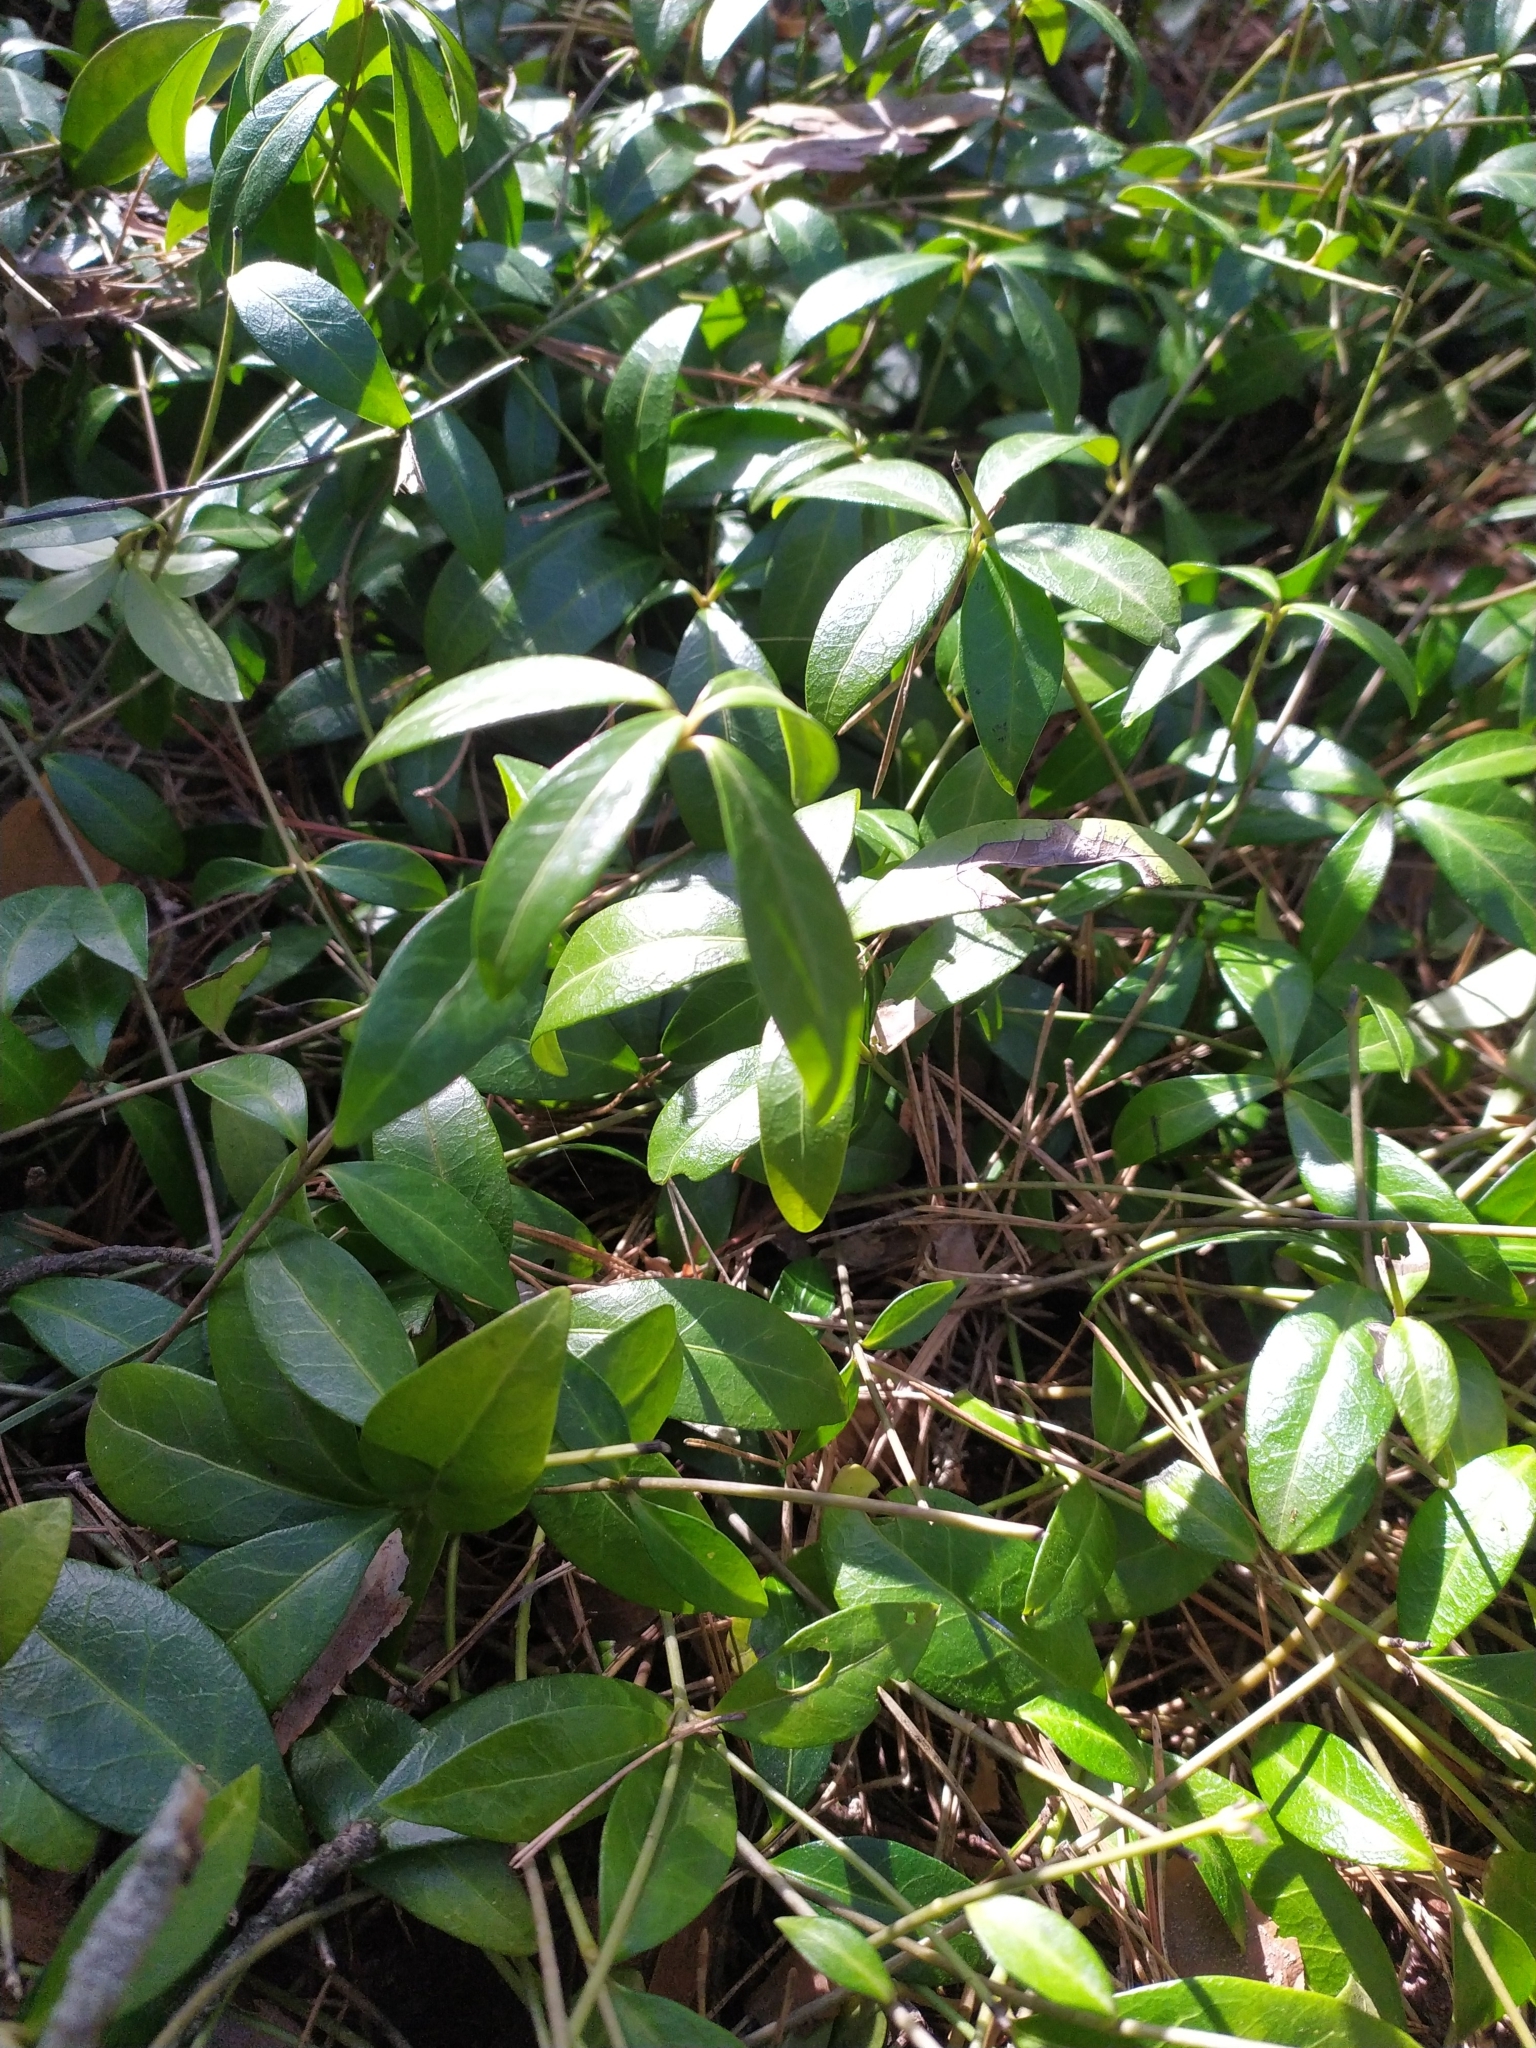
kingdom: Plantae
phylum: Tracheophyta
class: Magnoliopsida
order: Gentianales
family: Apocynaceae
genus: Vinca
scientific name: Vinca minor
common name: Lesser periwinkle
